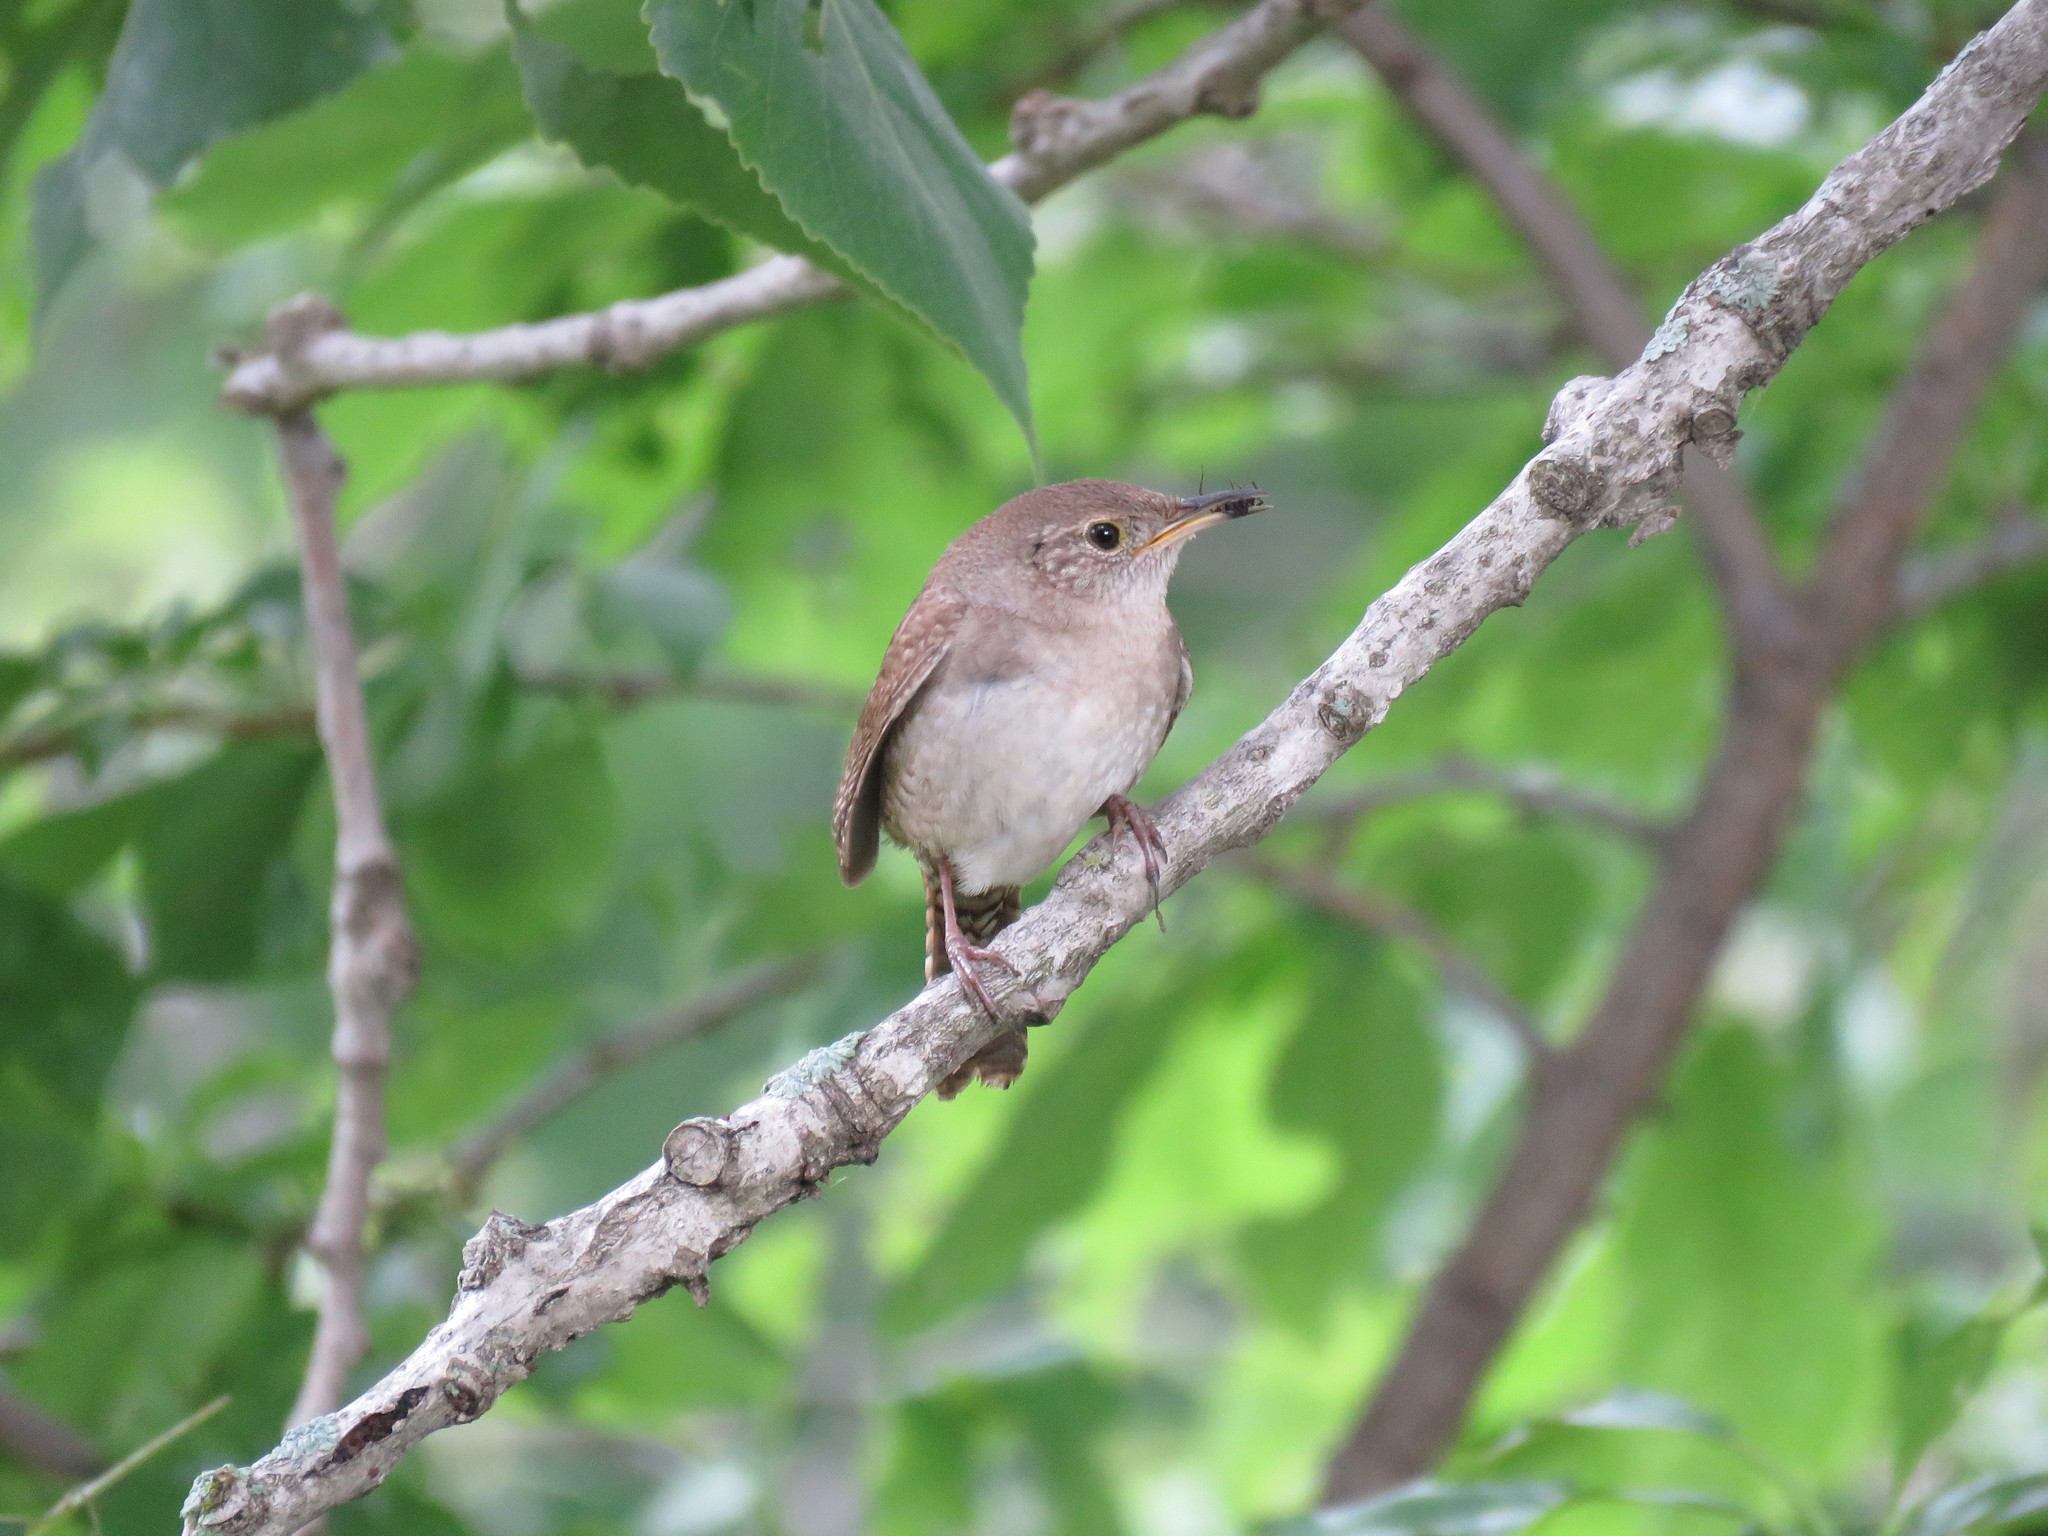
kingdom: Animalia
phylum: Chordata
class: Aves
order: Passeriformes
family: Troglodytidae
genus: Troglodytes
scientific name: Troglodytes aedon
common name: House wren
